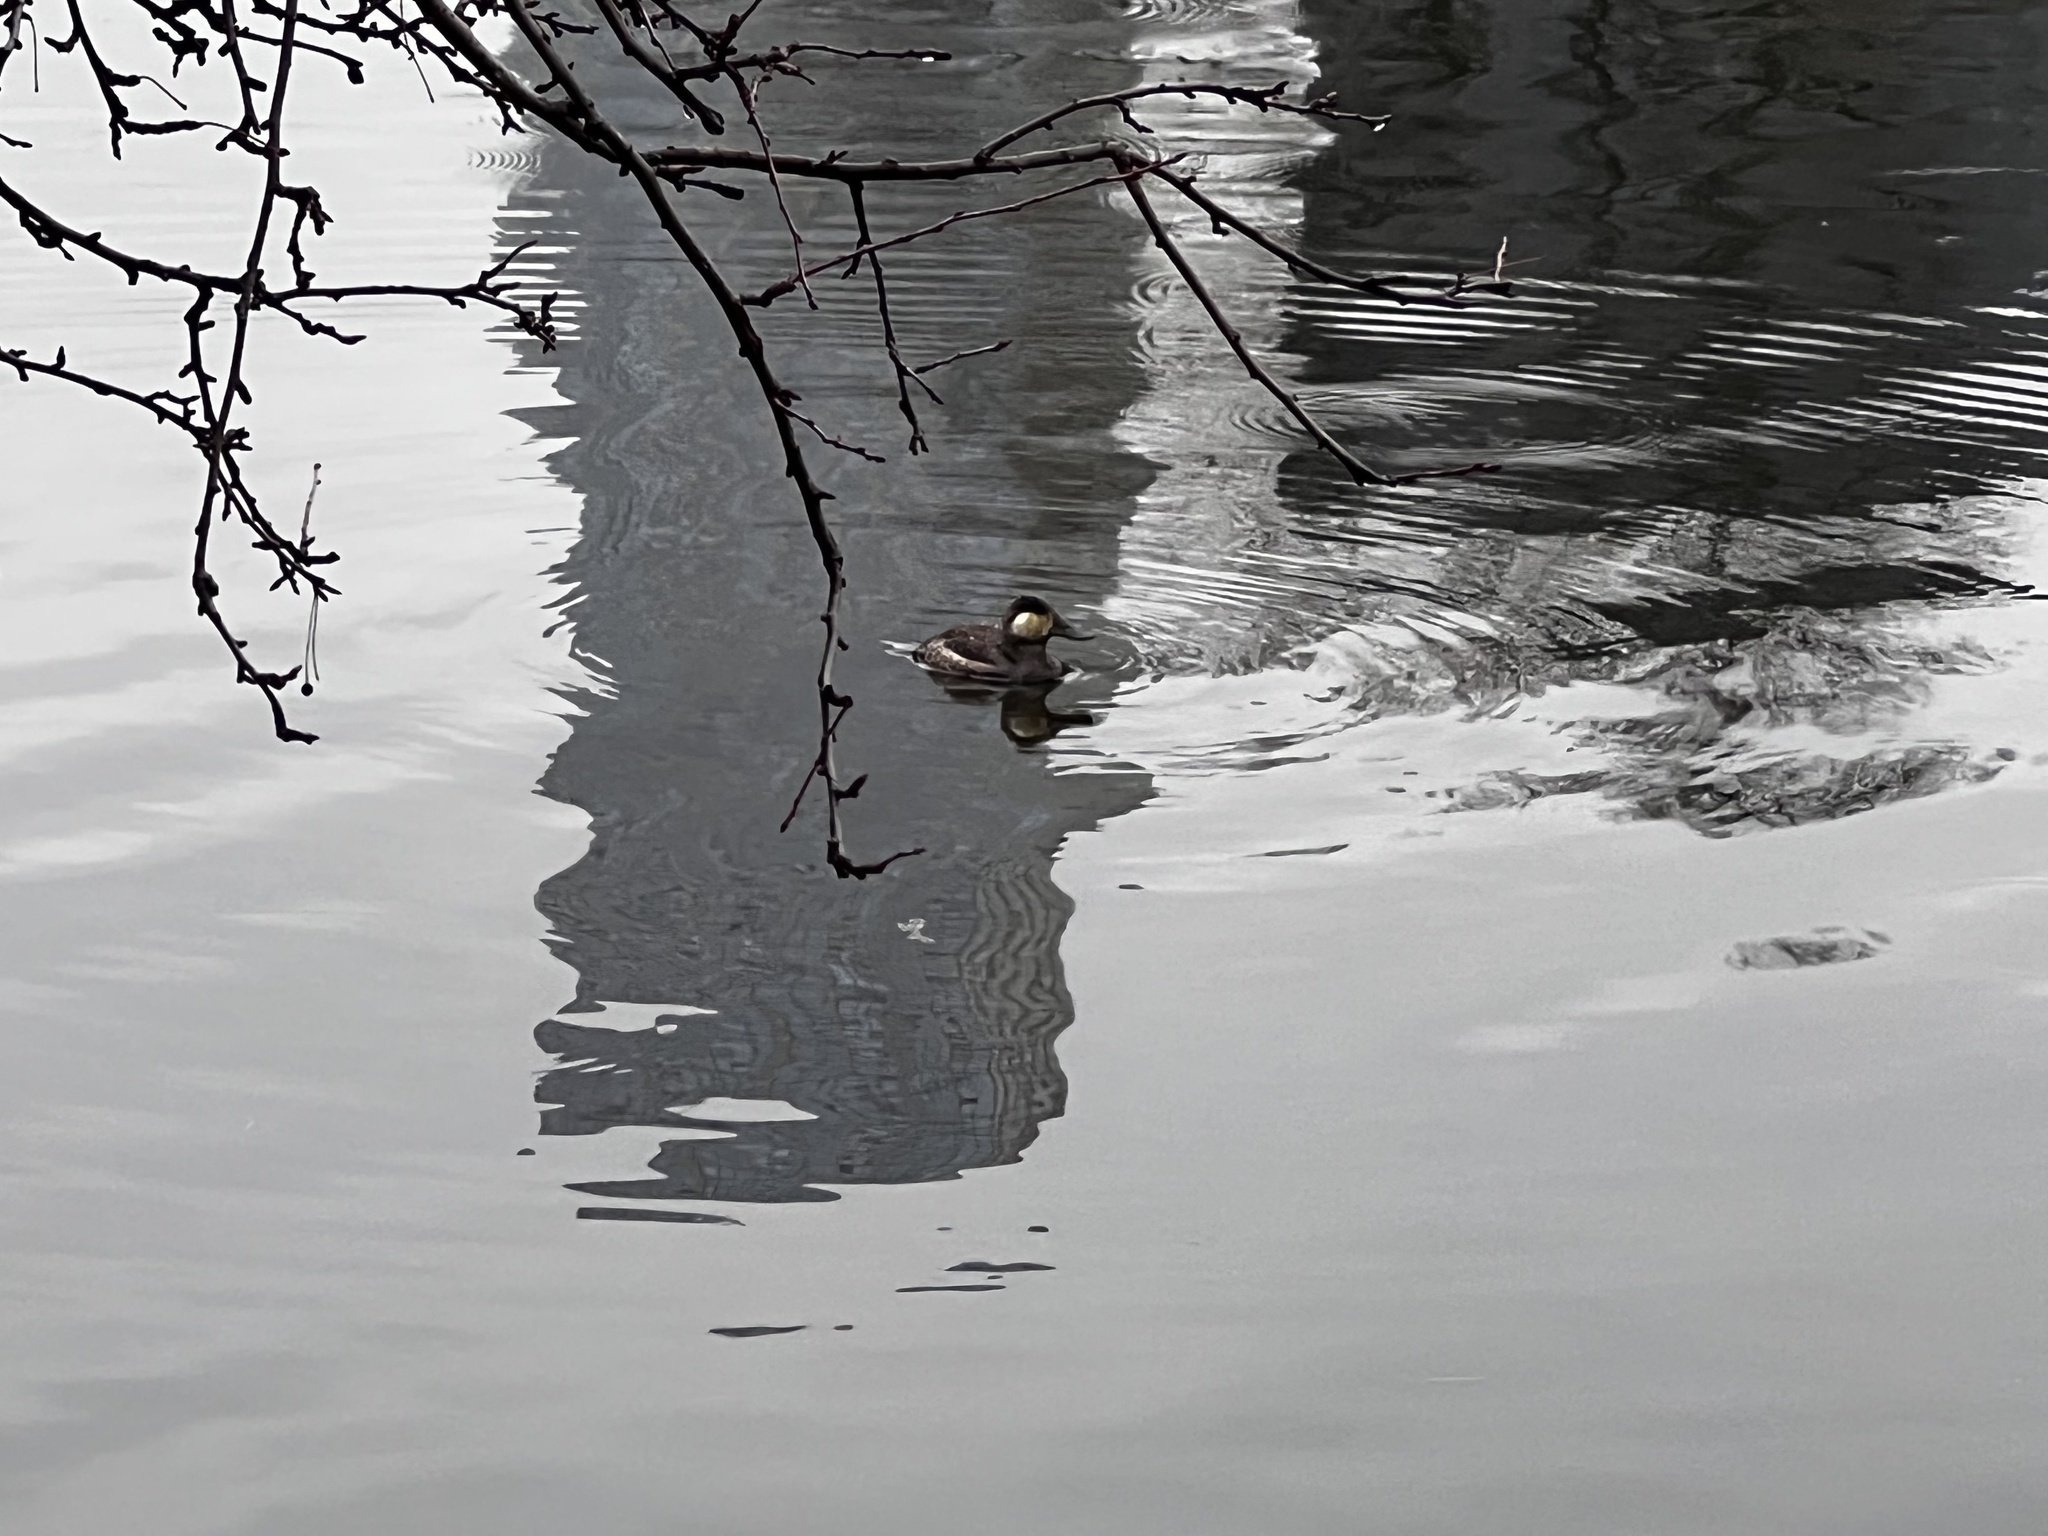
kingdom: Animalia
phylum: Chordata
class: Aves
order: Anseriformes
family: Anatidae
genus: Oxyura
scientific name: Oxyura jamaicensis
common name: Ruddy duck
